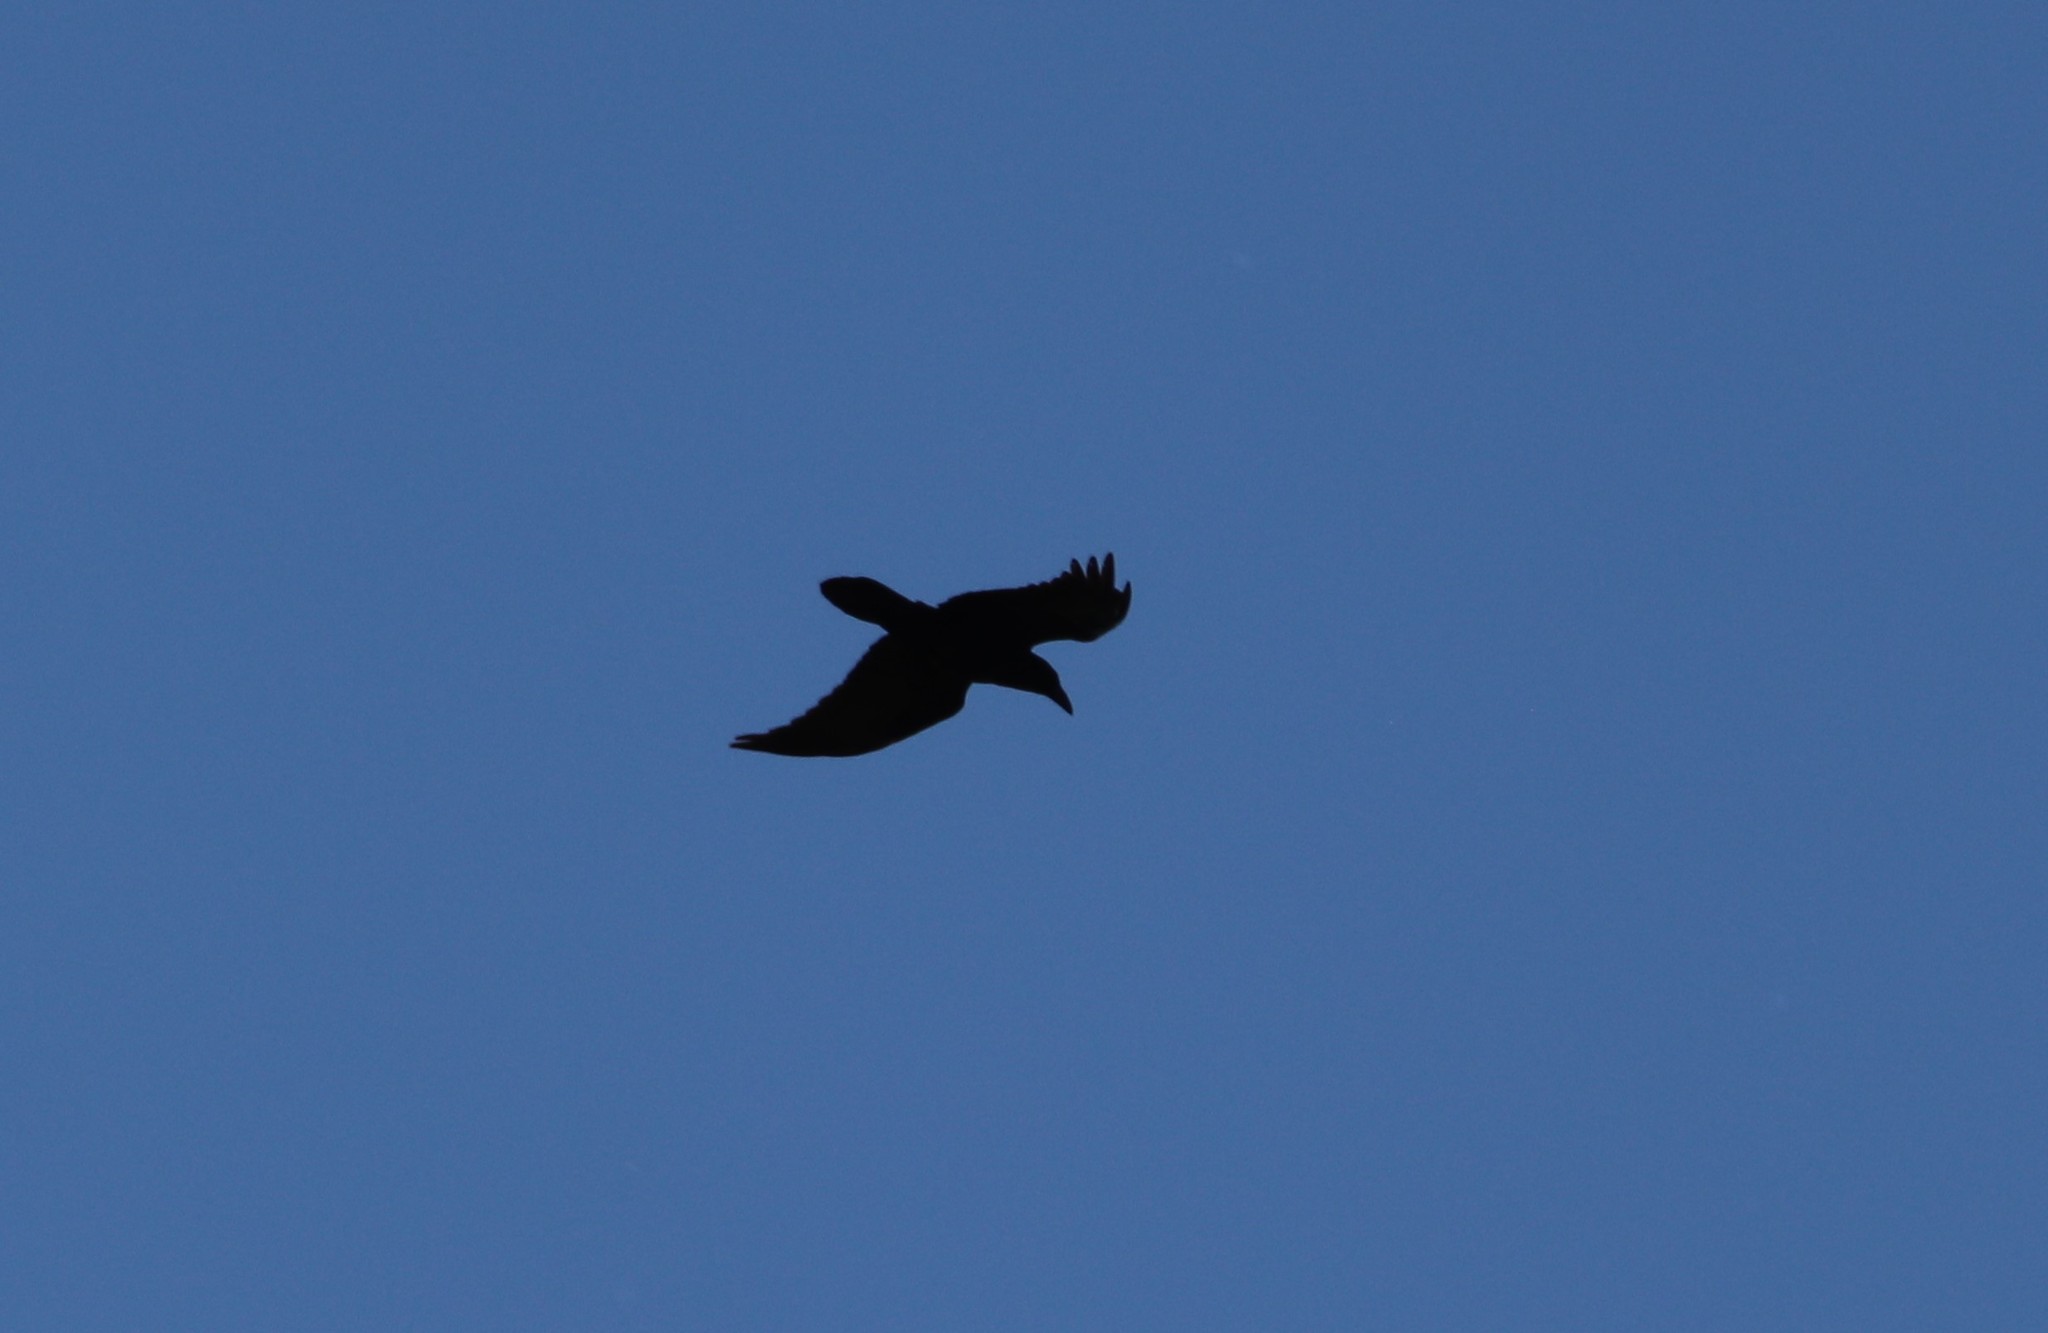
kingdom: Animalia
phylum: Chordata
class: Aves
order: Passeriformes
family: Corvidae
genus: Corvus
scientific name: Corvus corax
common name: Common raven
